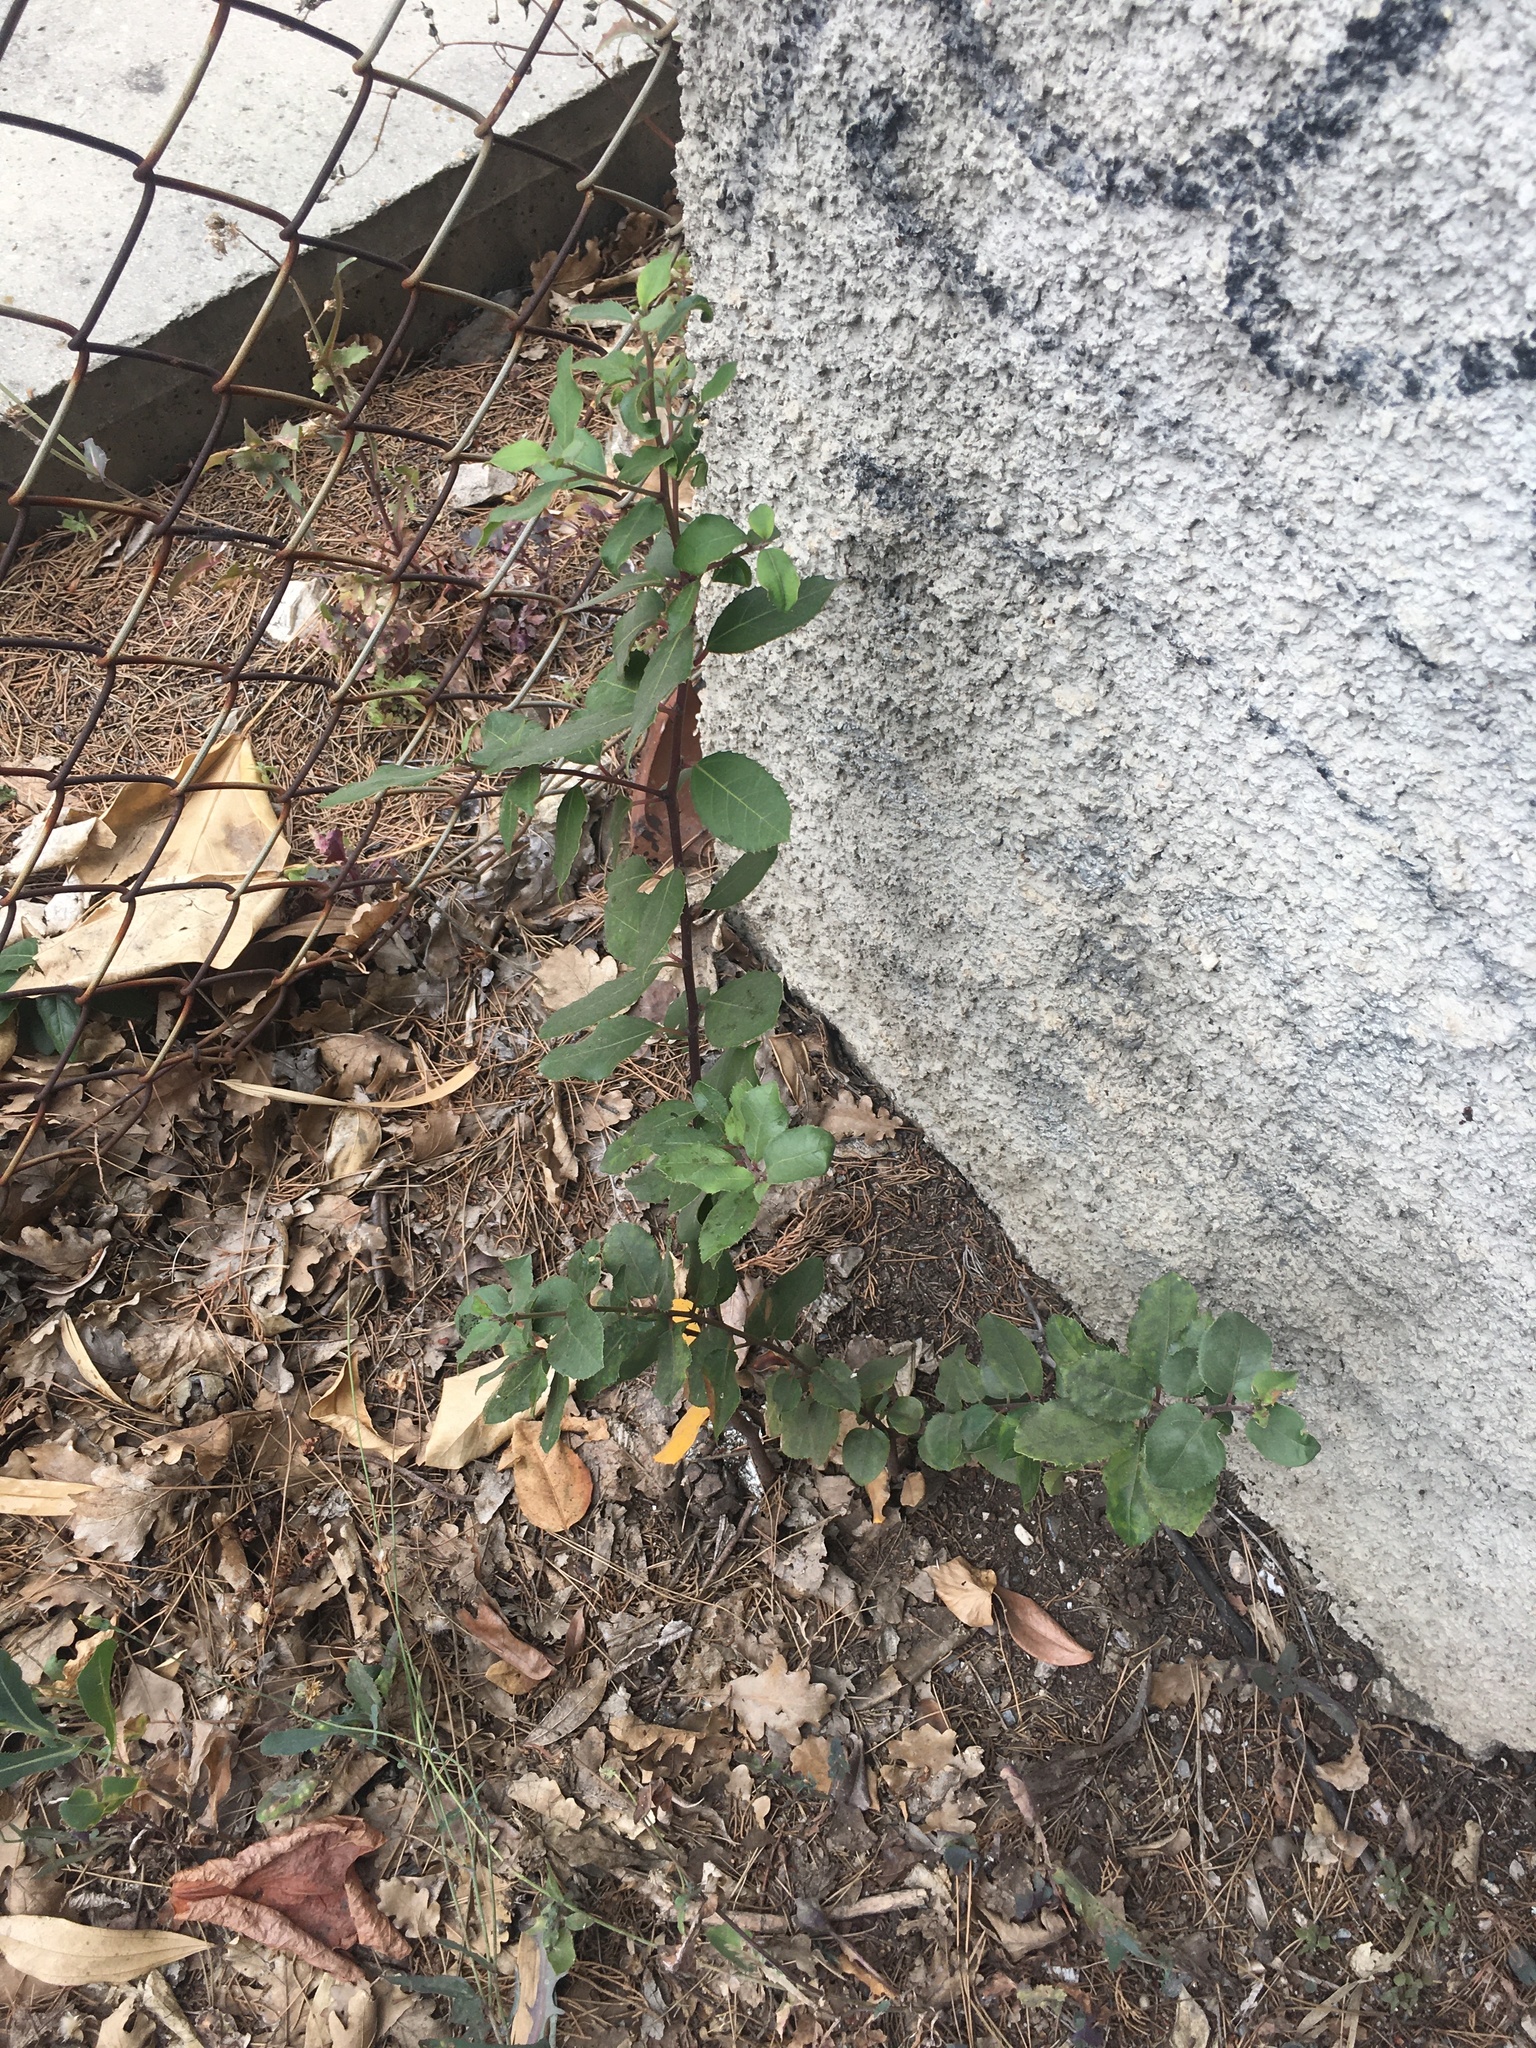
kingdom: Plantae
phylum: Tracheophyta
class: Magnoliopsida
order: Rosales
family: Rhamnaceae
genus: Rhamnus
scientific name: Rhamnus alaternus
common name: Mediterranean buckthorn
